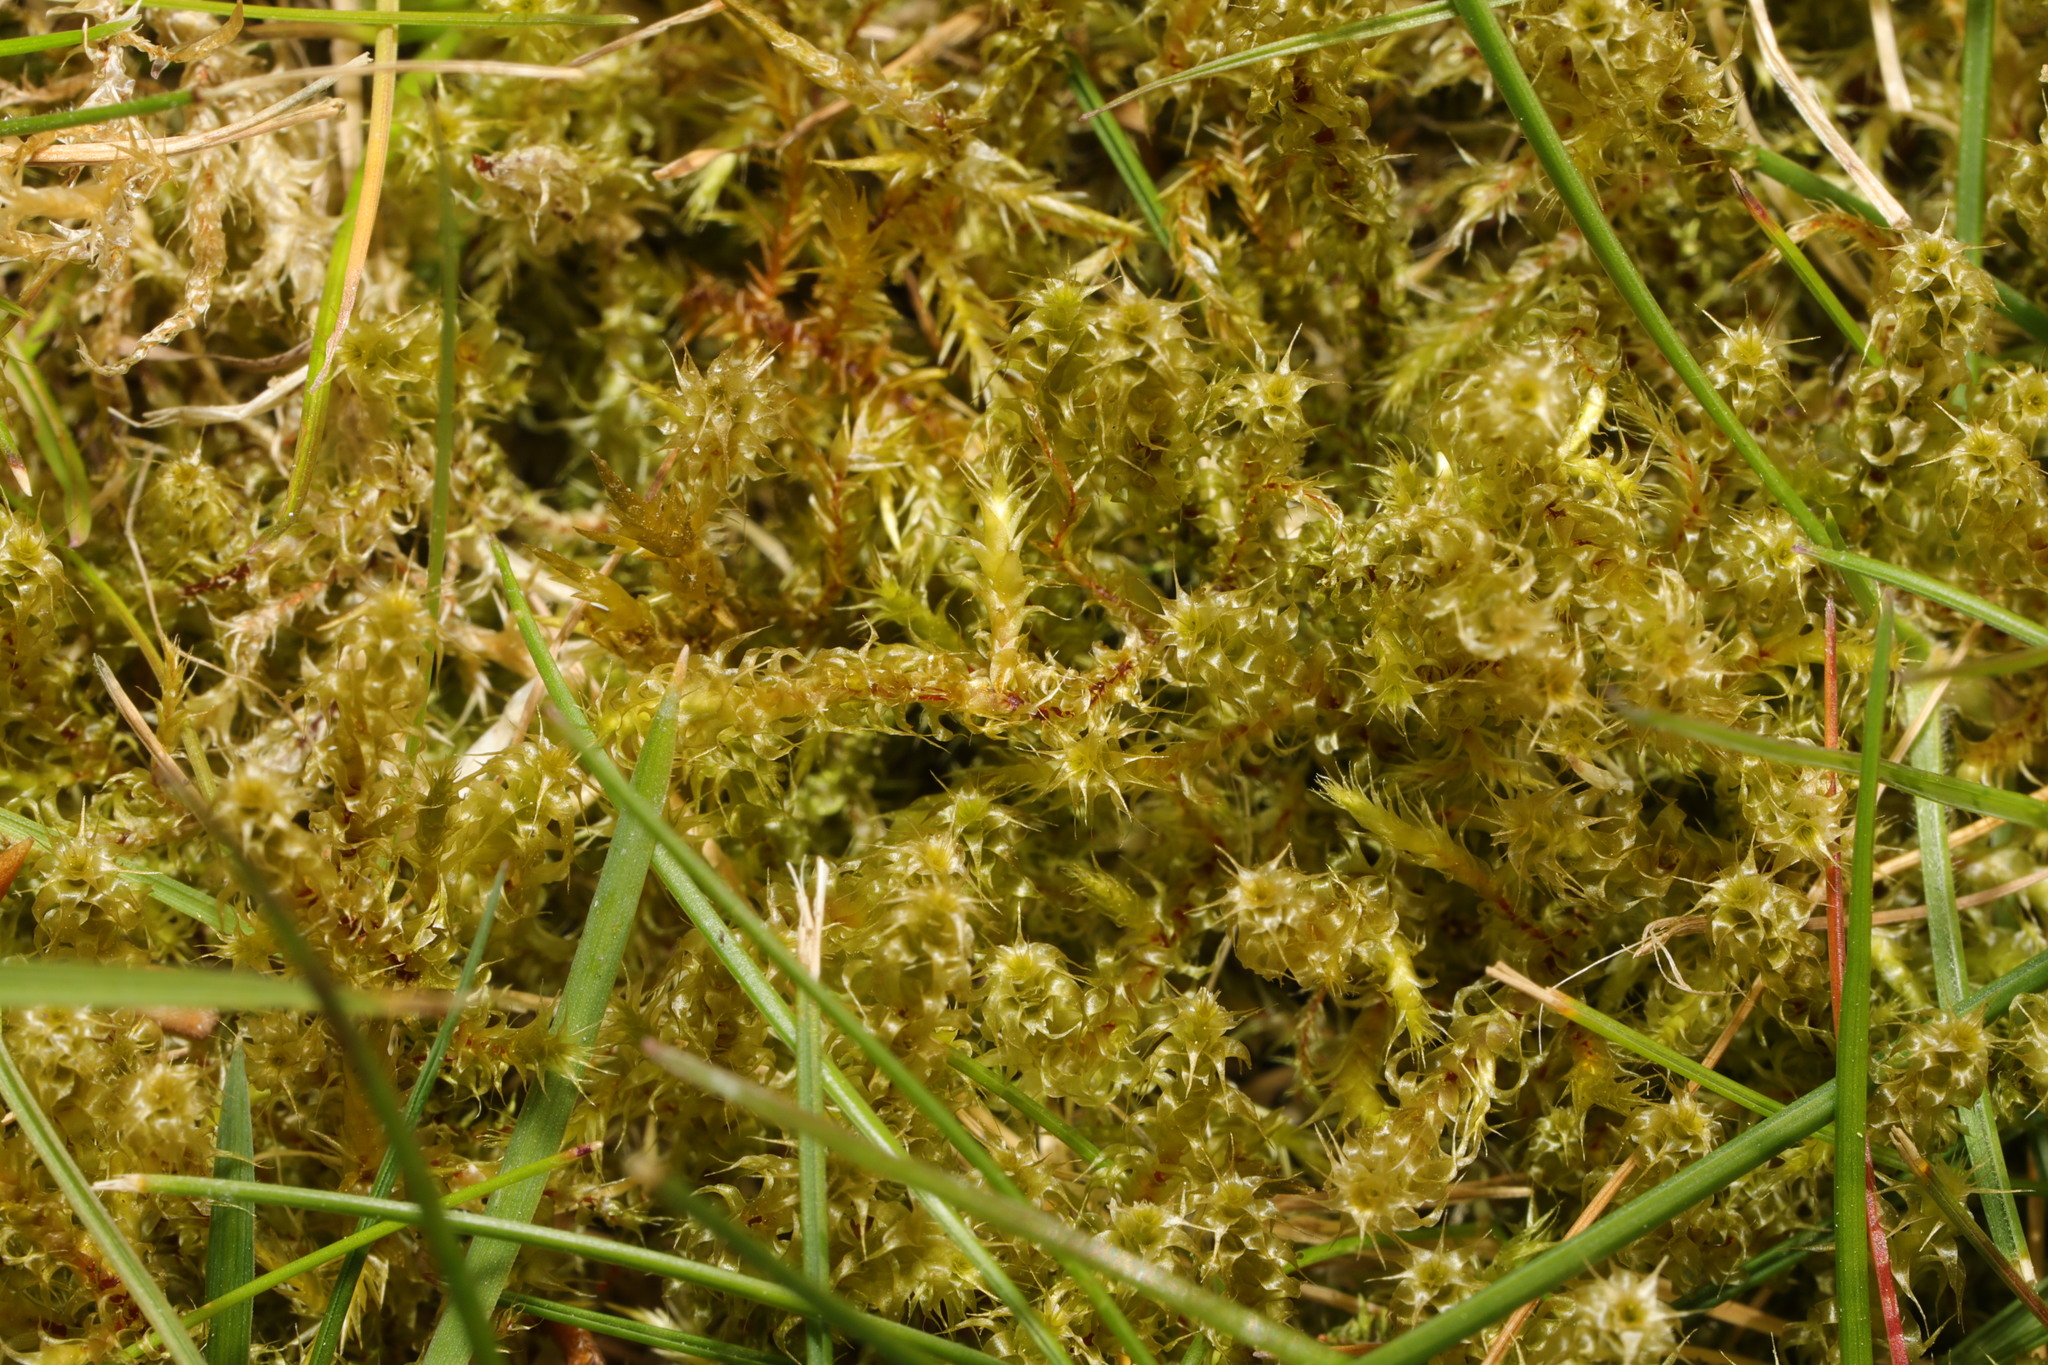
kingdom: Plantae
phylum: Bryophyta
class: Bryopsida
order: Hypnales
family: Hylocomiaceae
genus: Rhytidiadelphus
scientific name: Rhytidiadelphus squarrosus
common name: Springy turf-moss
